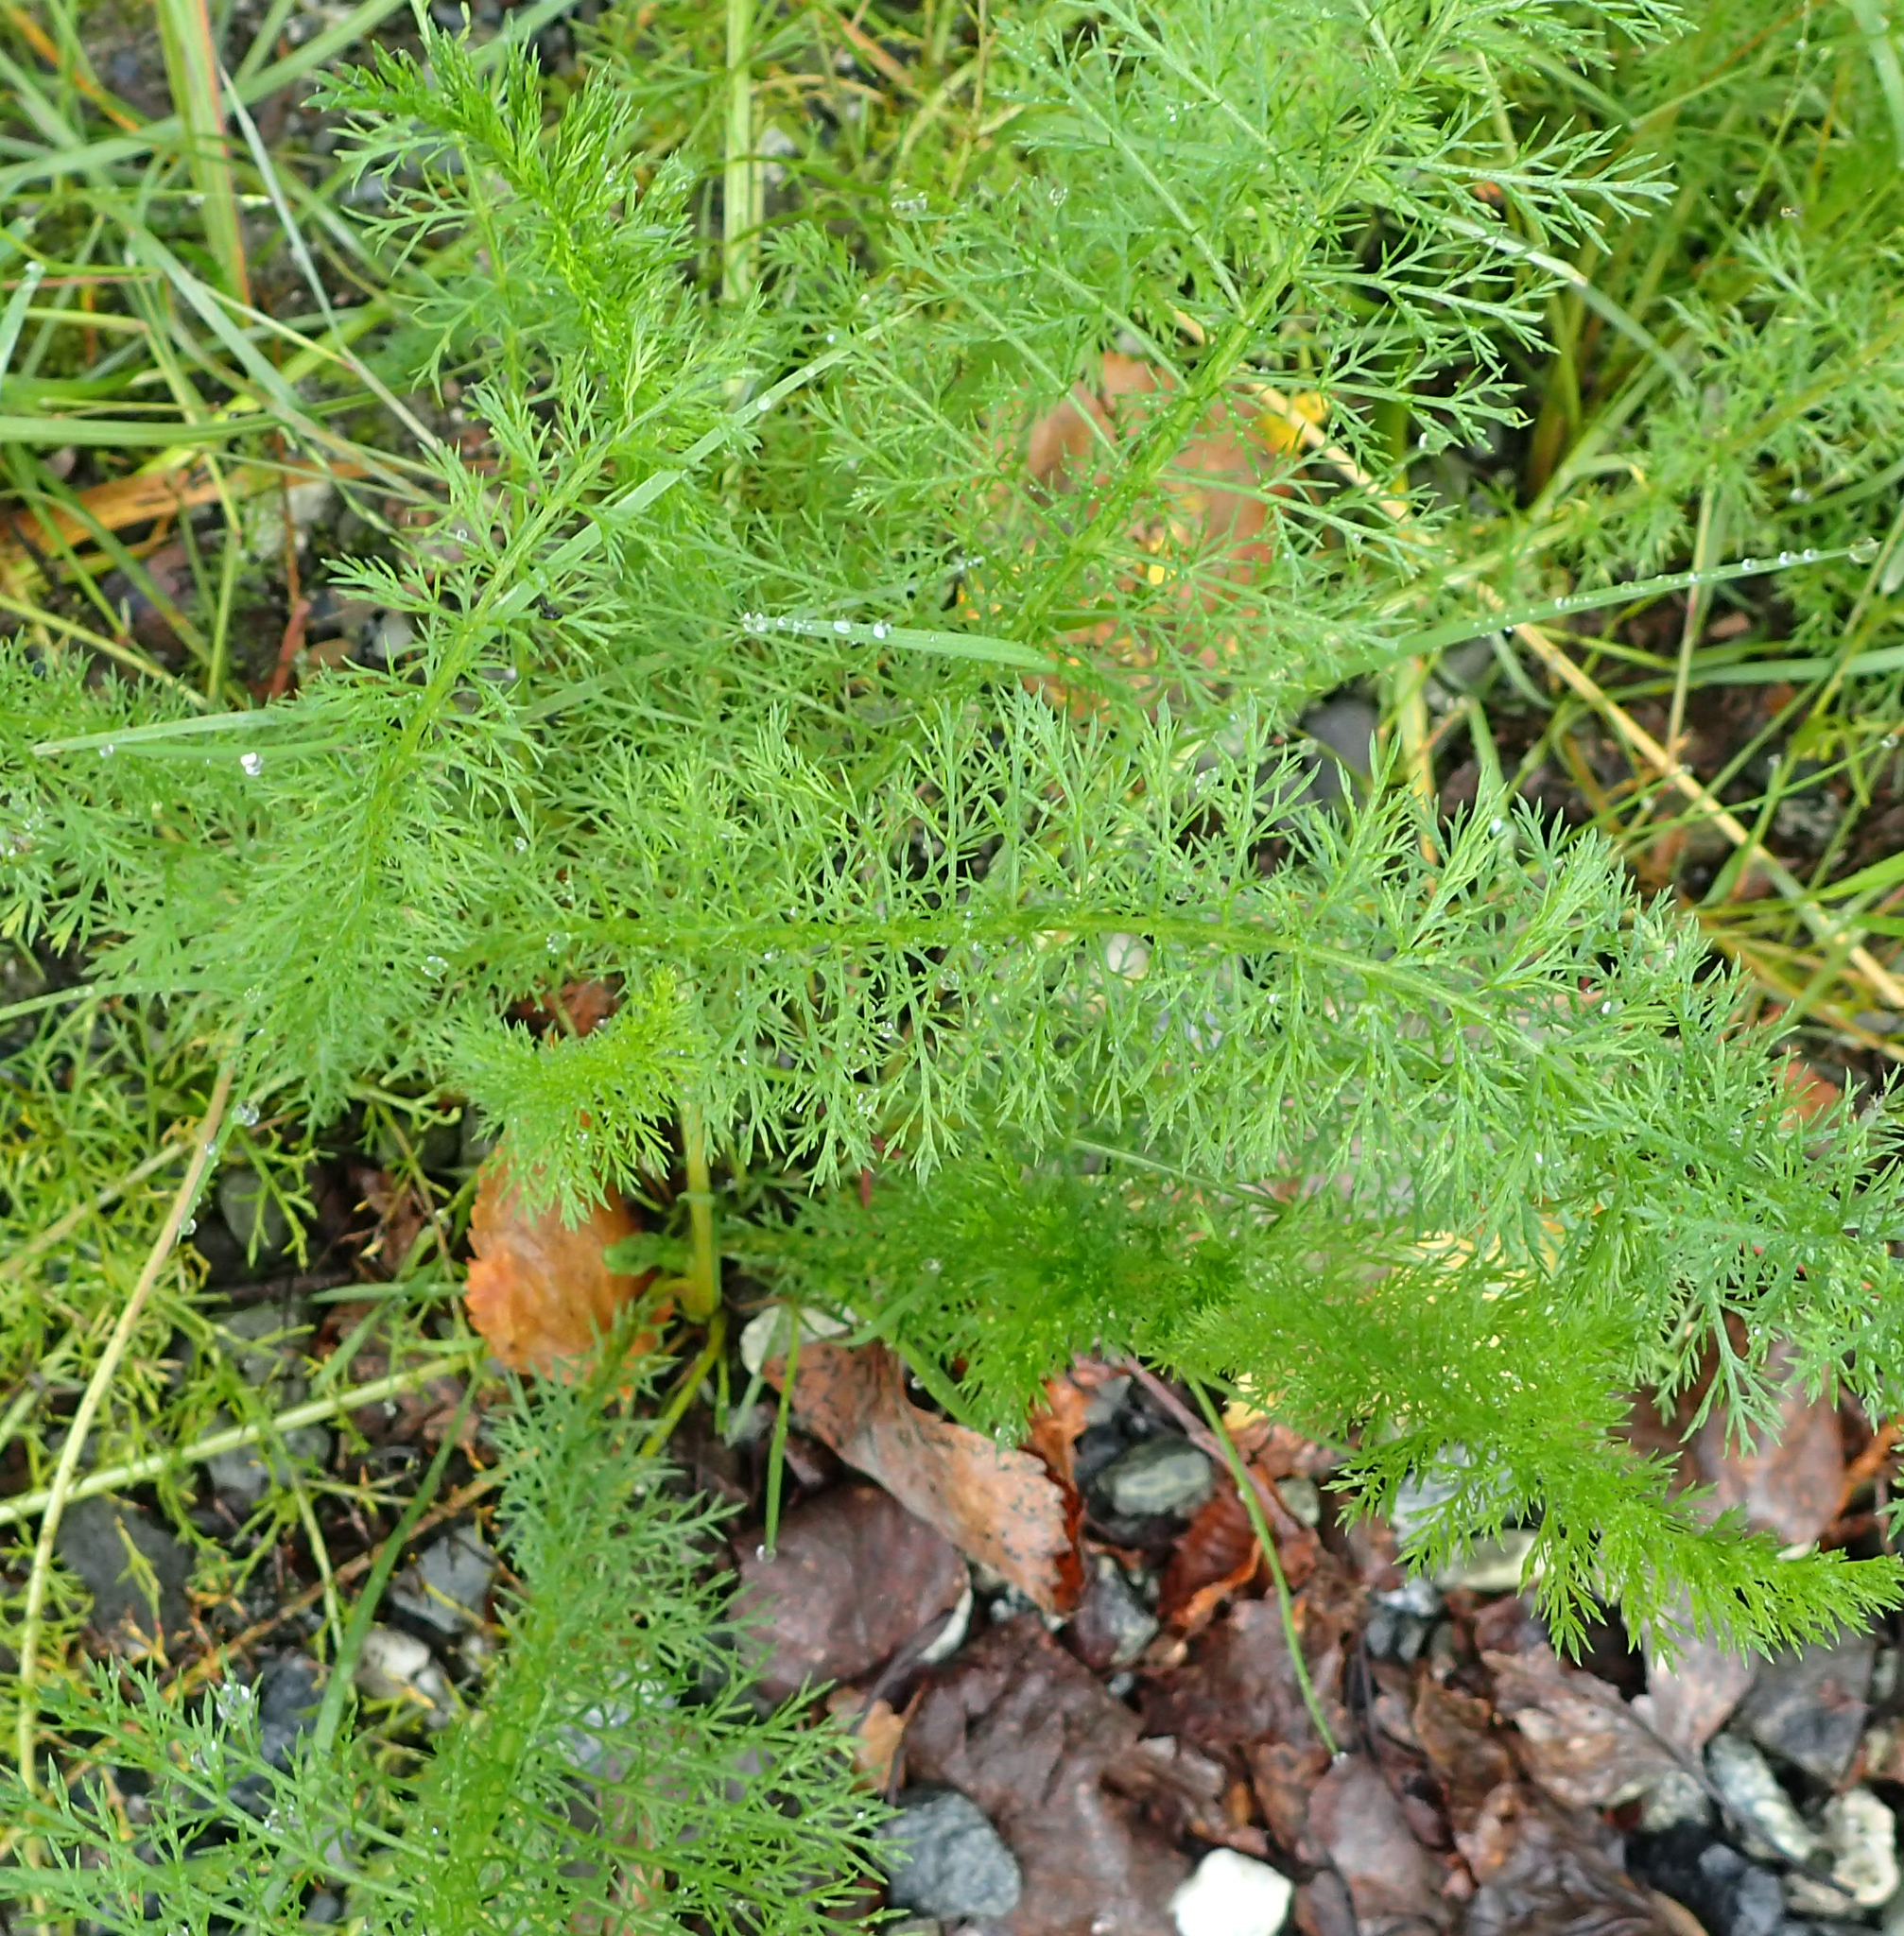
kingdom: Plantae
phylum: Tracheophyta
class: Magnoliopsida
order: Asterales
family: Asteraceae
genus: Achillea
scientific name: Achillea millefolium
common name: Yarrow
